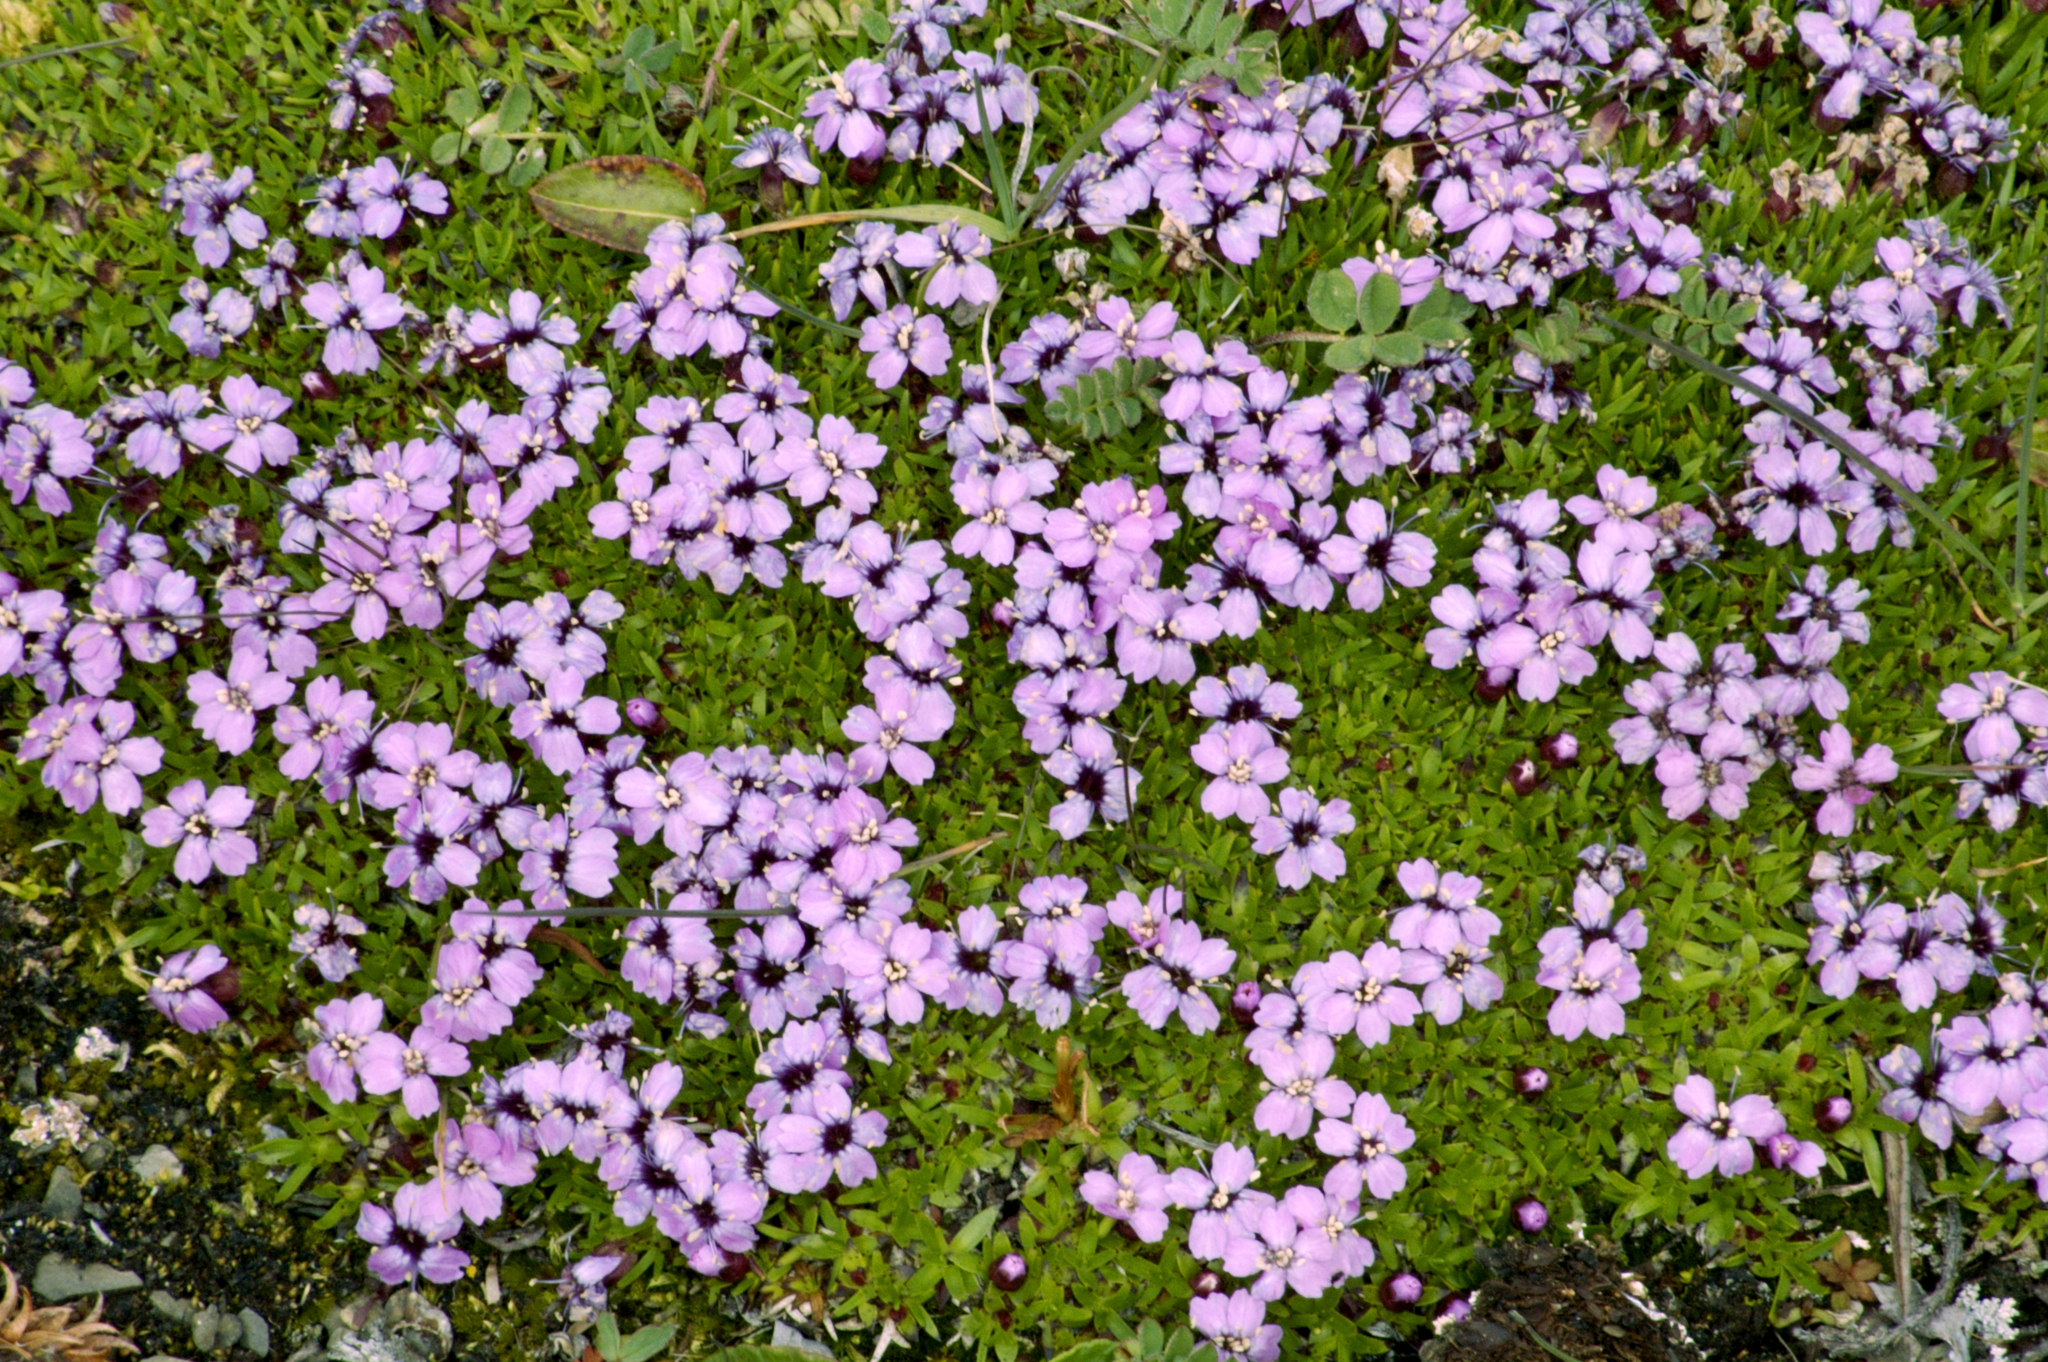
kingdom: Plantae
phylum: Tracheophyta
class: Magnoliopsida
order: Caryophyllales
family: Caryophyllaceae
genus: Silene
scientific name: Silene acaulis
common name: Moss campion
